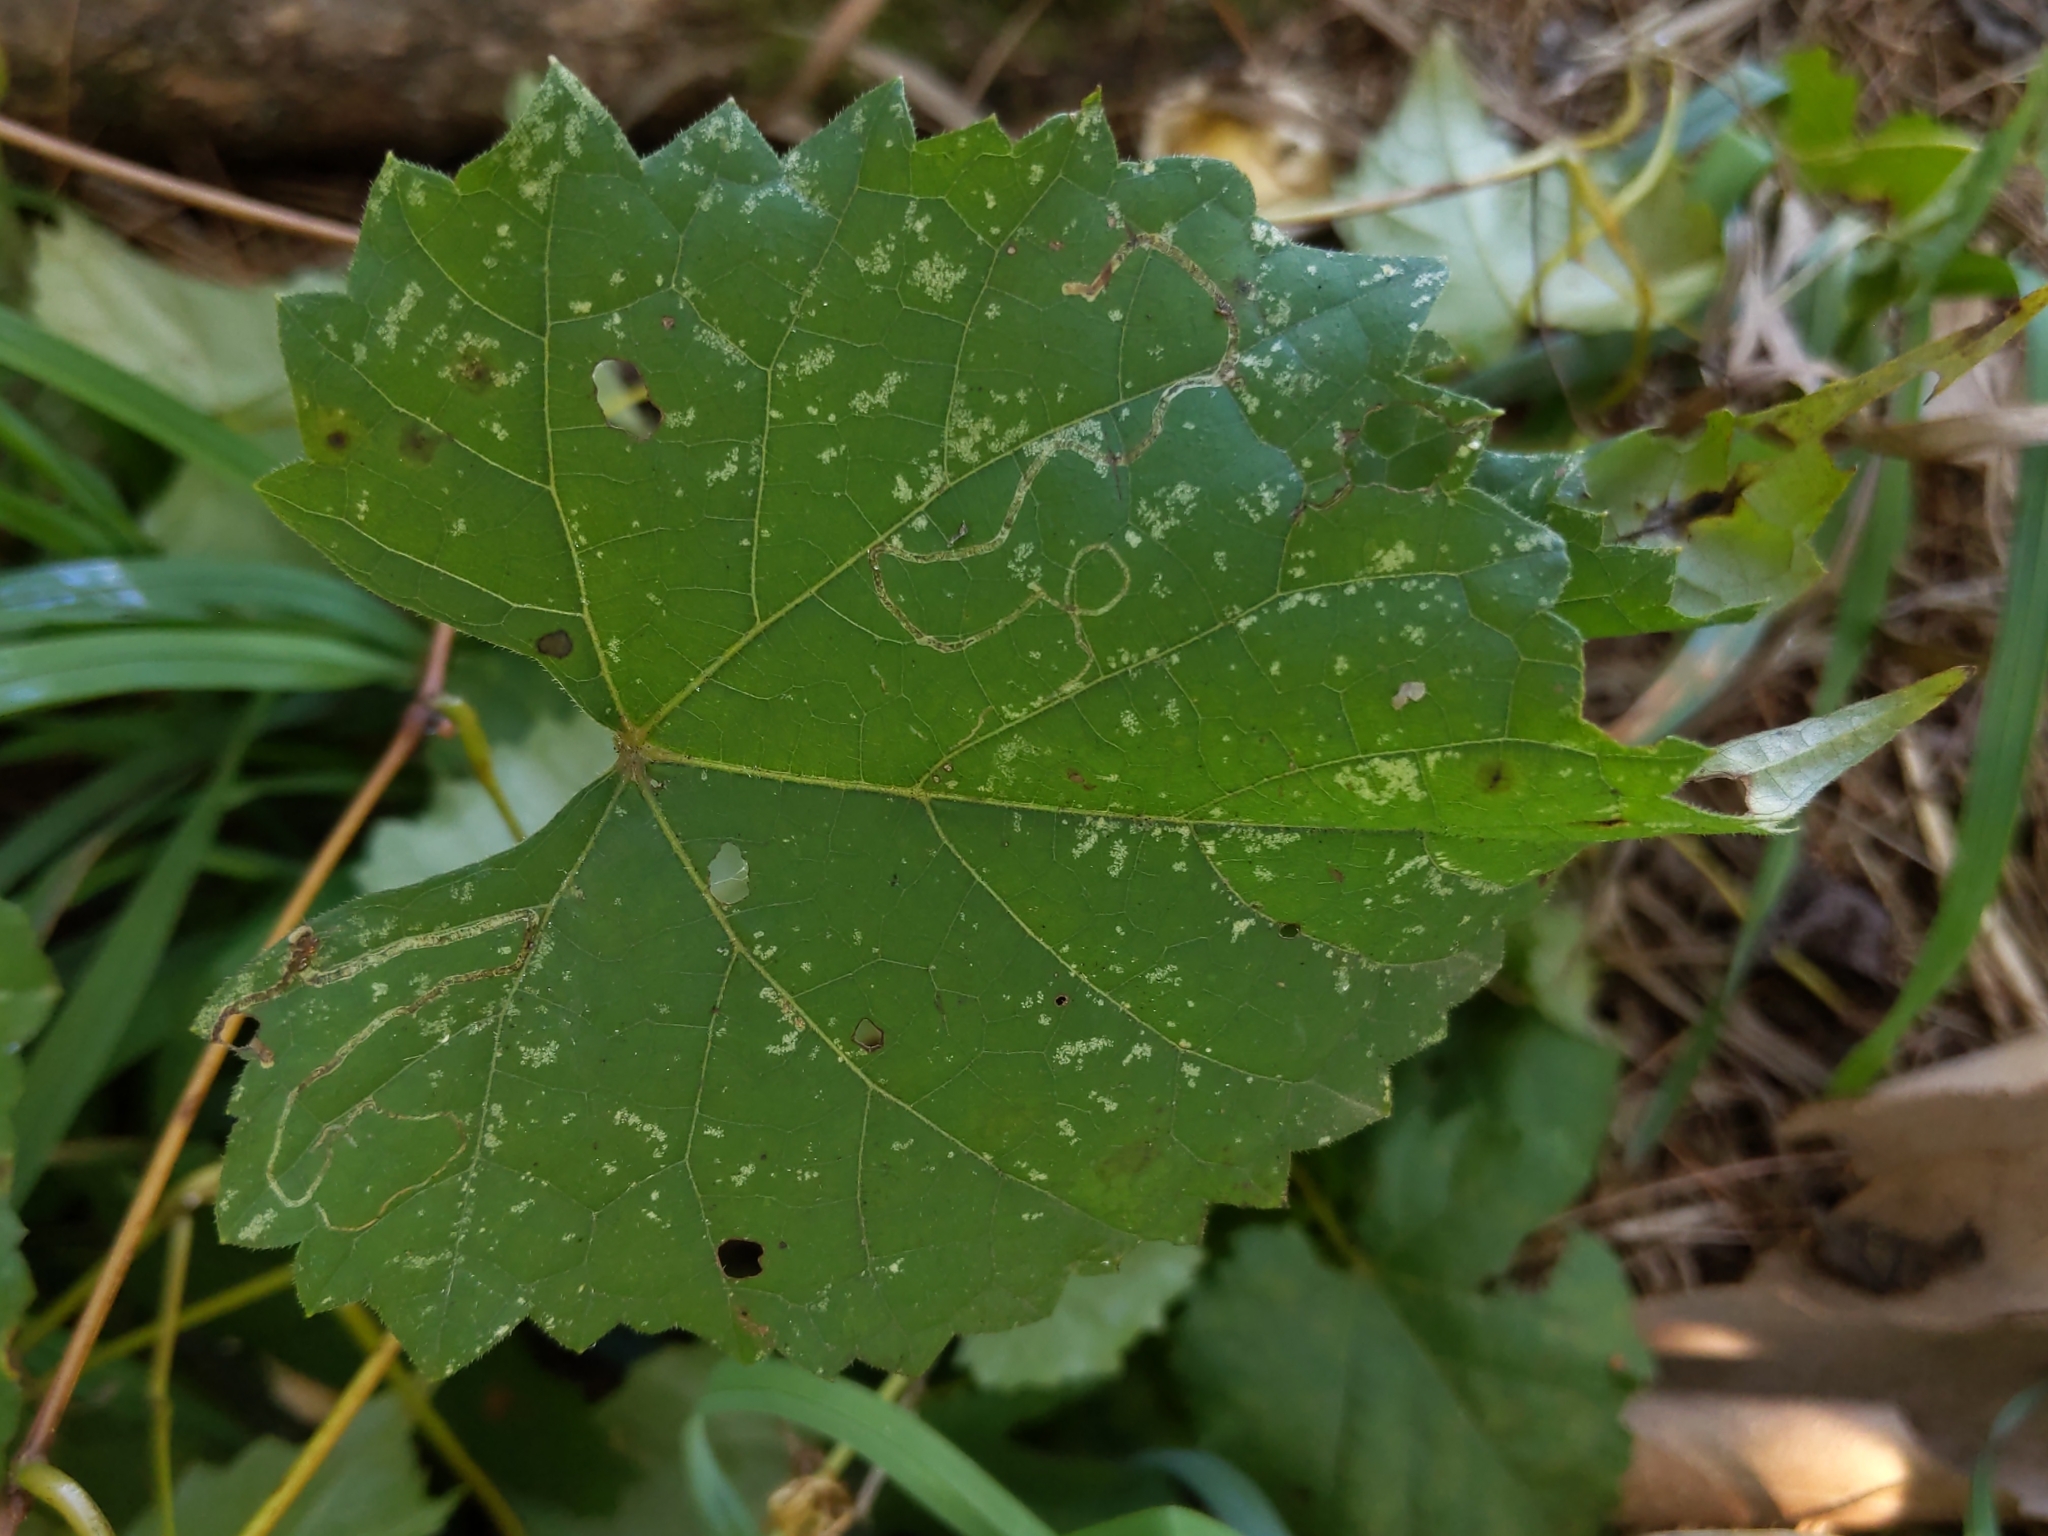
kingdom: Animalia
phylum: Arthropoda
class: Insecta
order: Lepidoptera
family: Gracillariidae
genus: Phyllocnistis
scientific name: Phyllocnistis vitifoliella
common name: Grape leaf-miner moth
